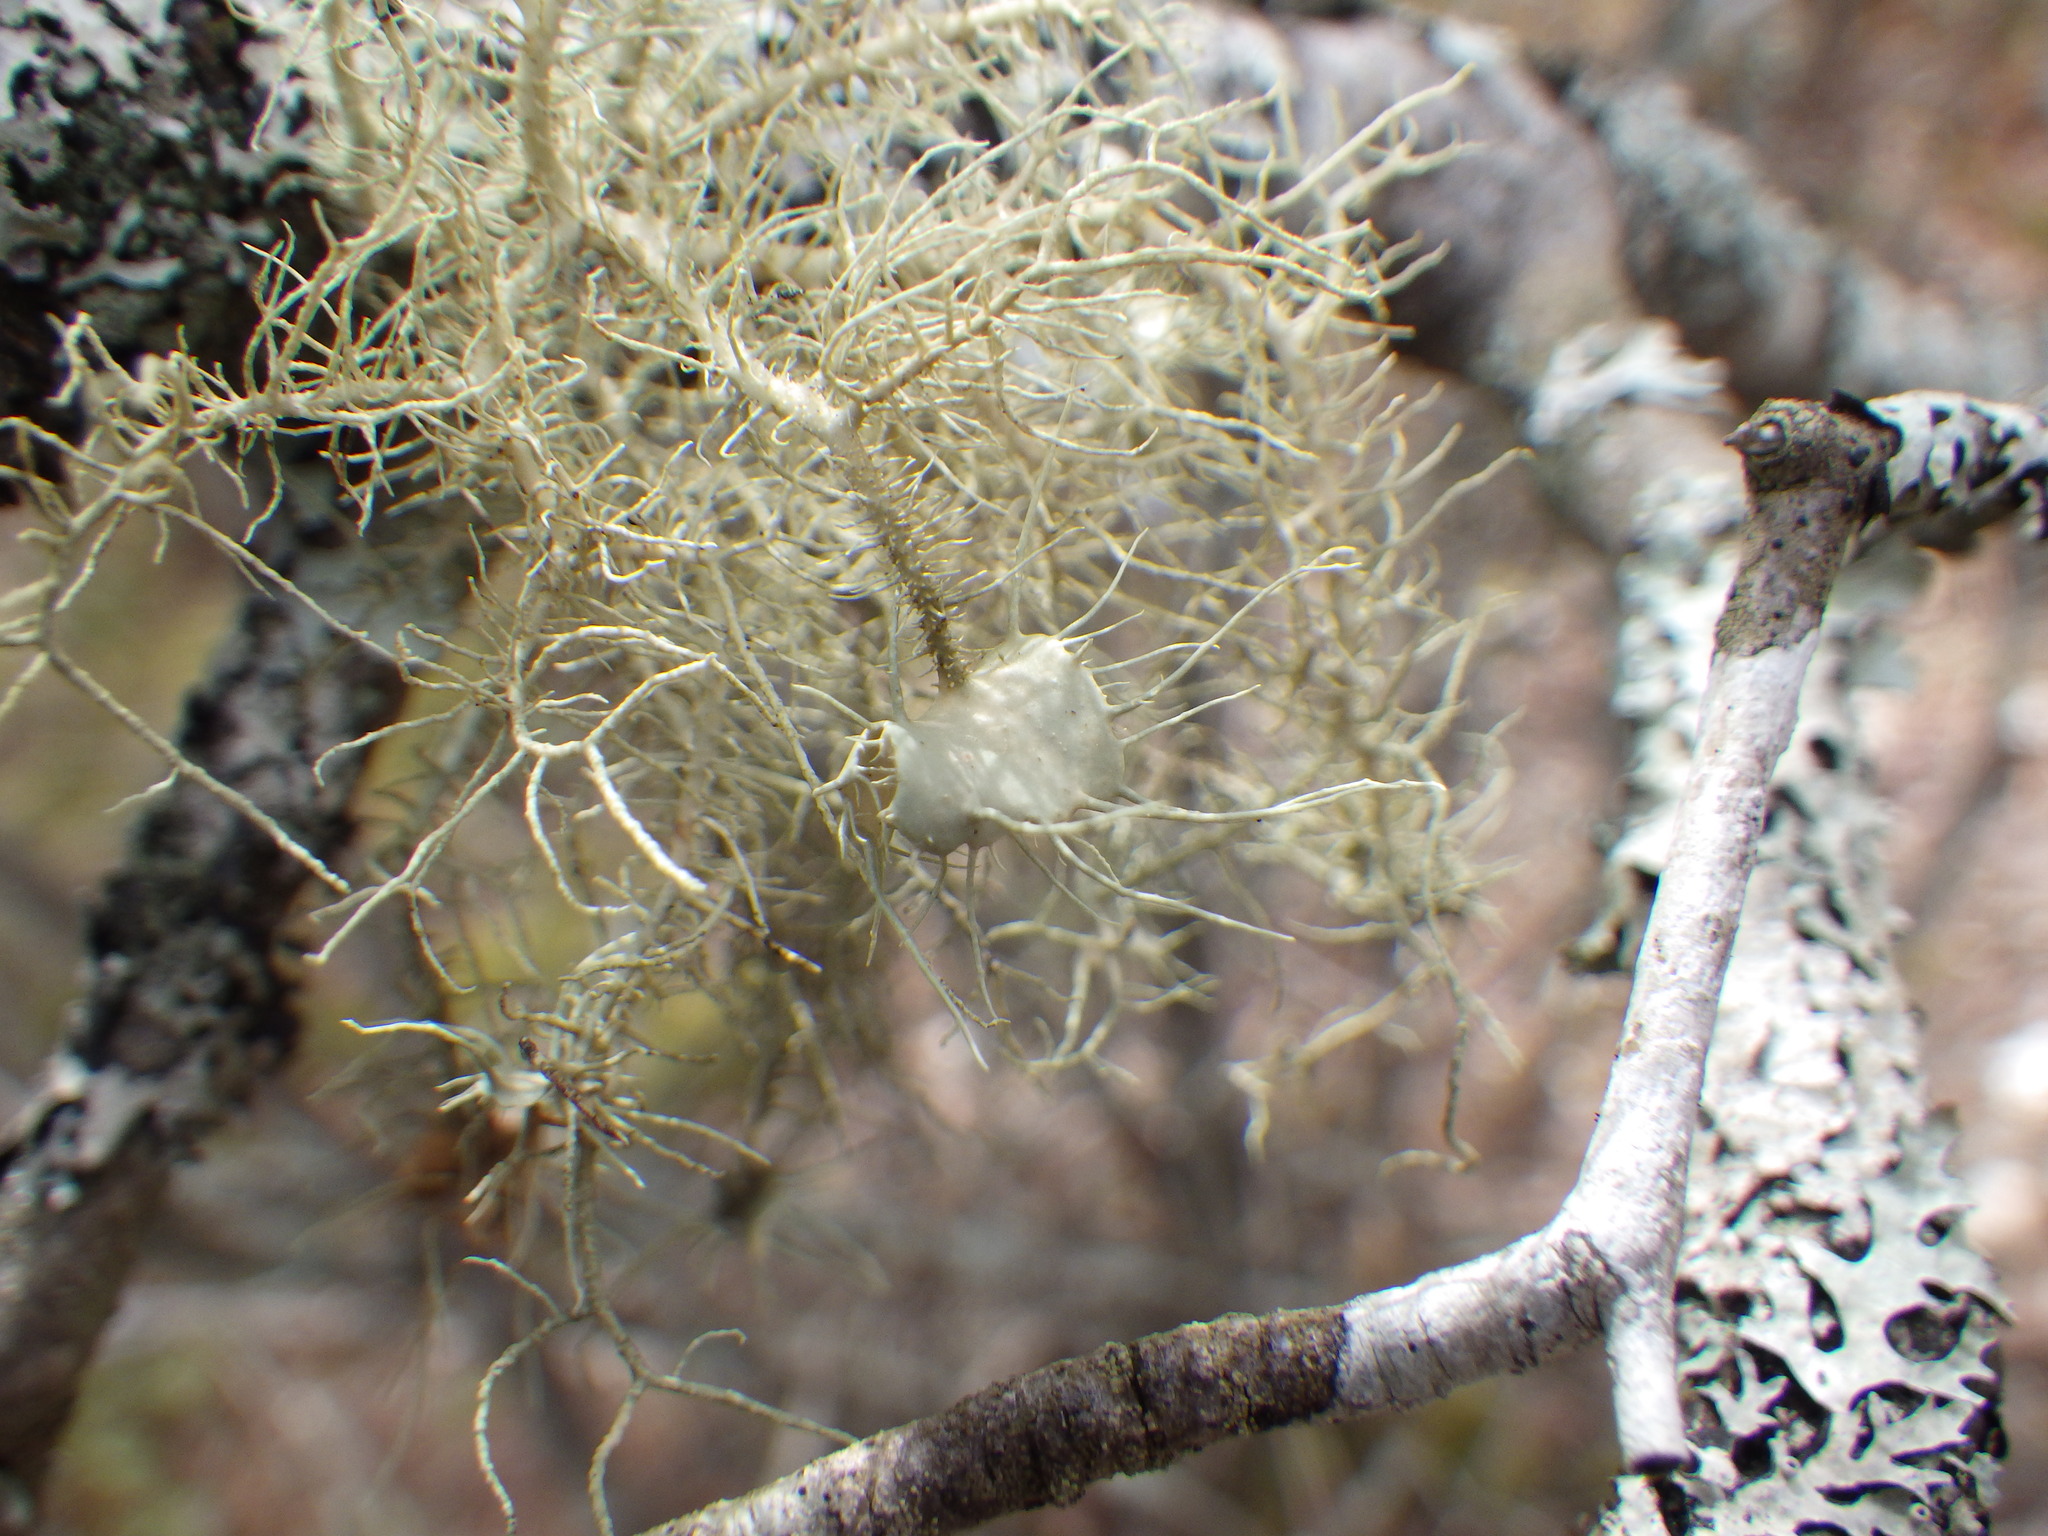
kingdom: Fungi
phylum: Ascomycota
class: Lecanoromycetes
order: Lecanorales
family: Parmeliaceae
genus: Usnea
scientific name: Usnea strigosa
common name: Bushy beard lichen
